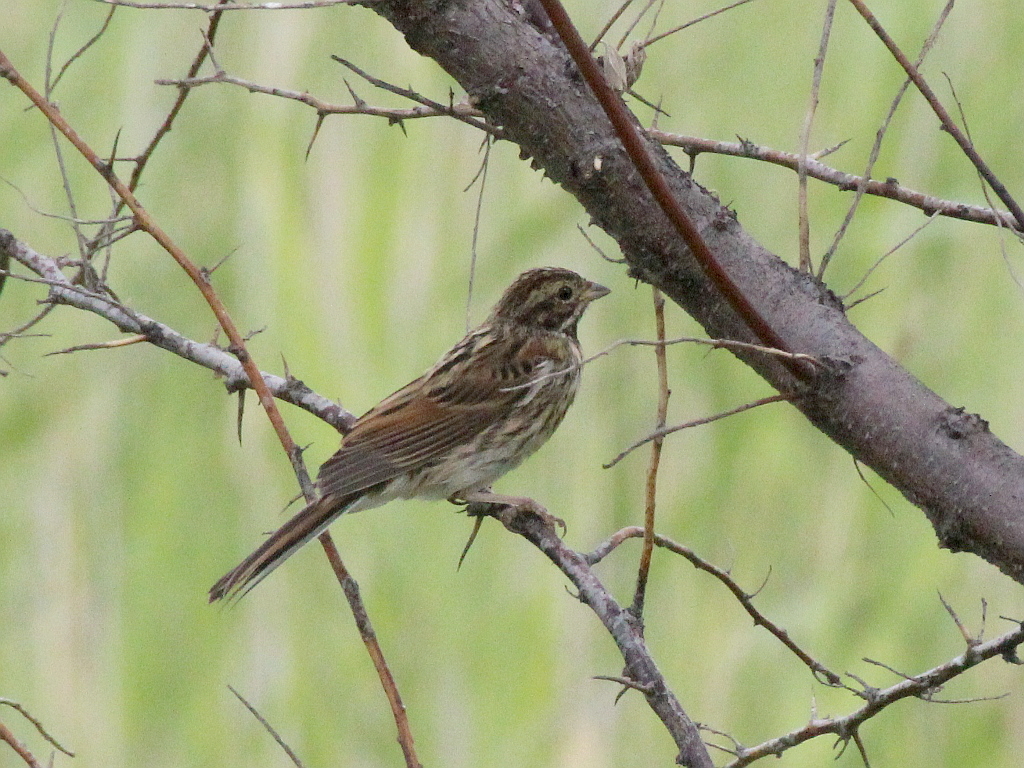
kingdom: Animalia
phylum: Chordata
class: Aves
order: Passeriformes
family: Emberizidae
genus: Emberiza
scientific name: Emberiza schoeniclus
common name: Reed bunting
